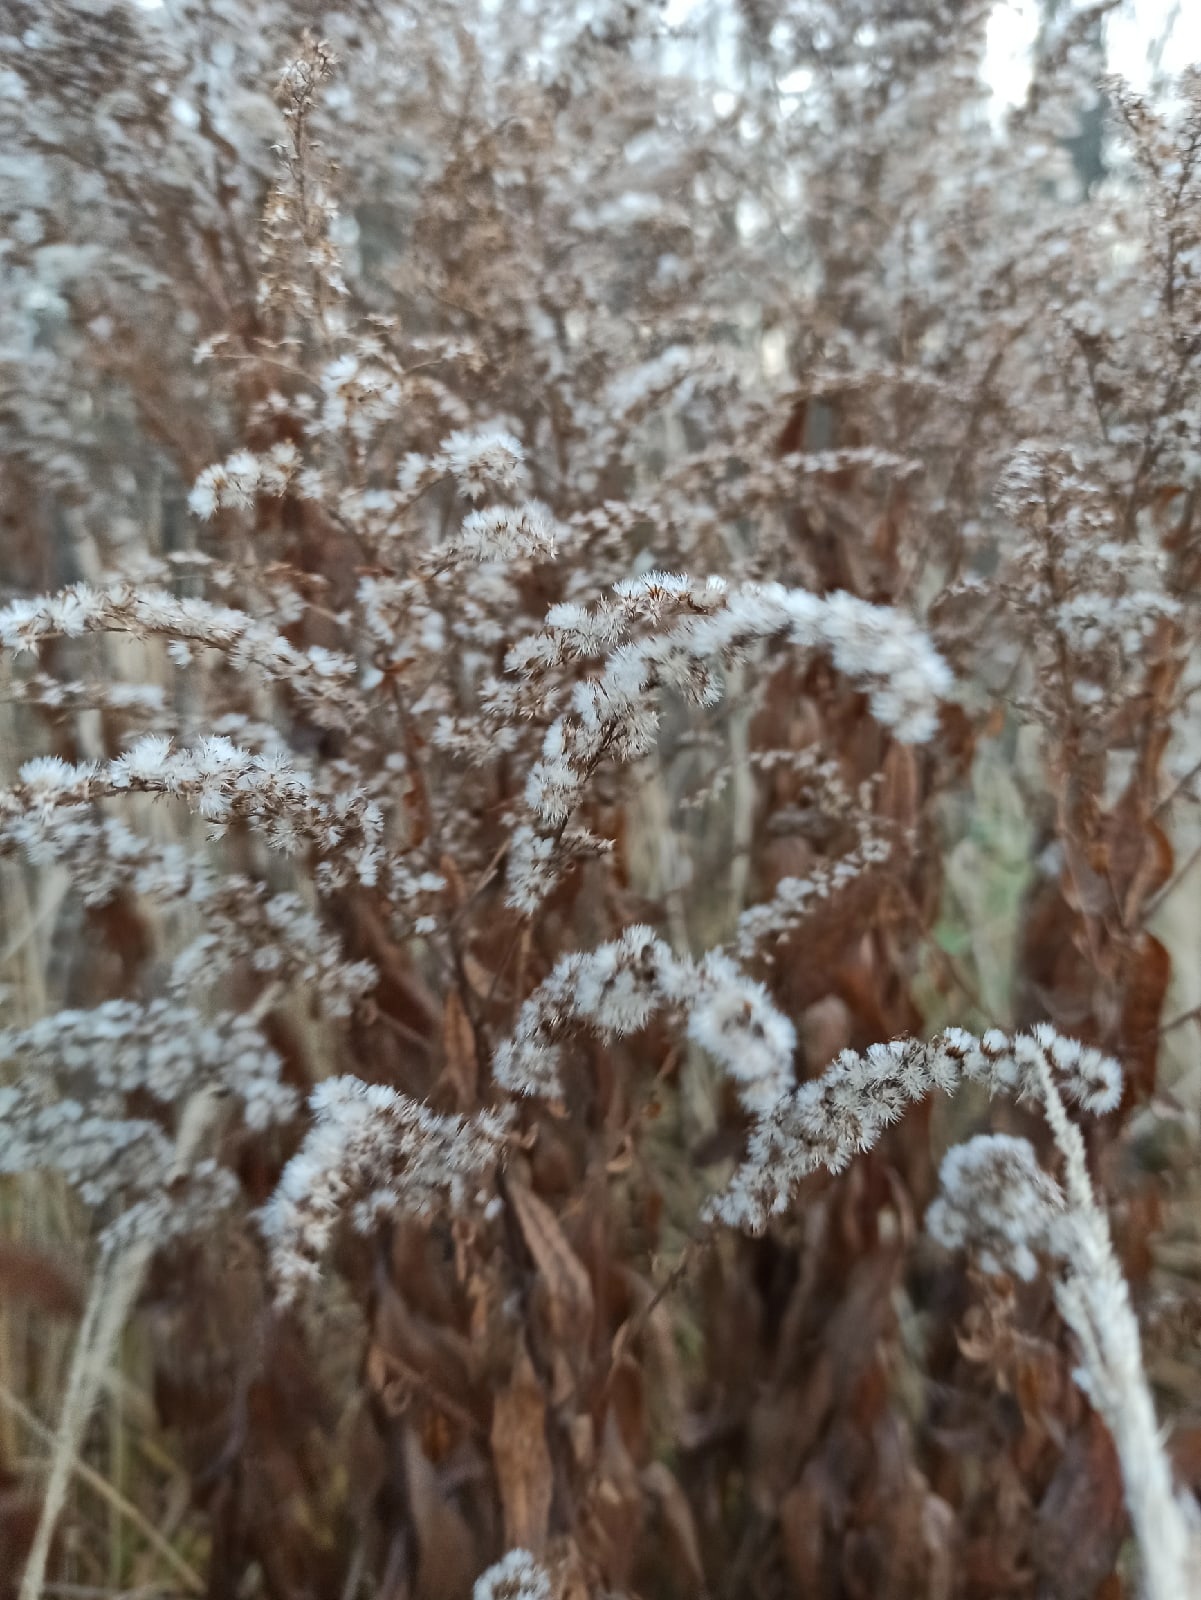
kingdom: Plantae
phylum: Tracheophyta
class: Magnoliopsida
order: Asterales
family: Asteraceae
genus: Solidago
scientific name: Solidago canadensis
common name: Canada goldenrod
